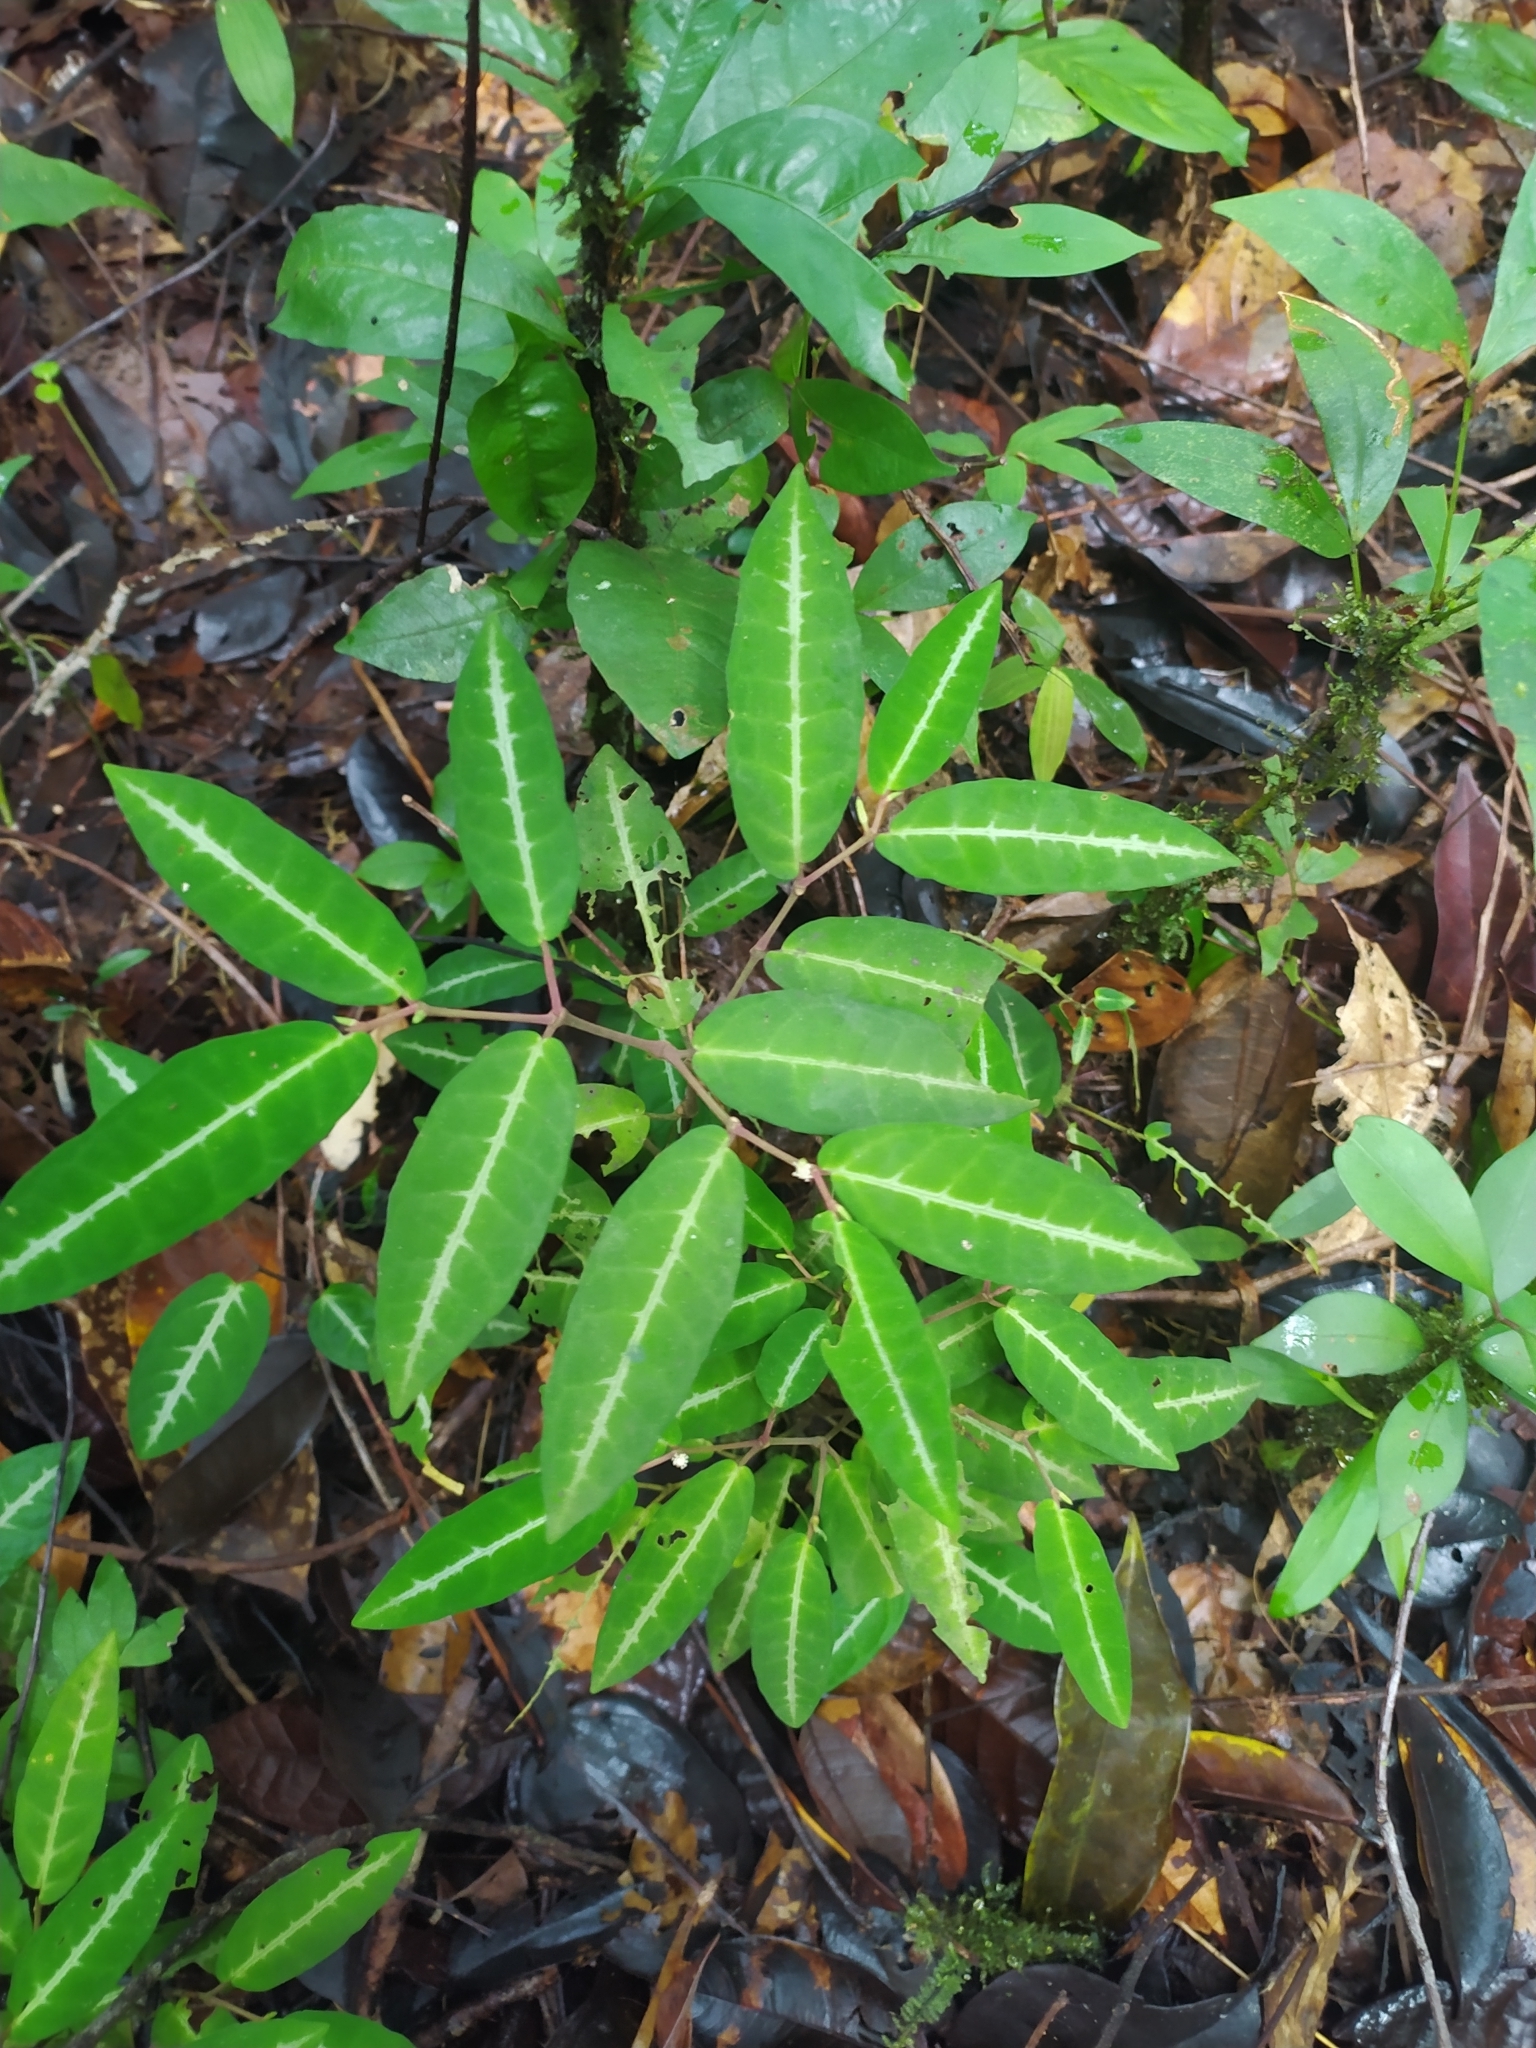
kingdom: Plantae
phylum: Tracheophyta
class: Magnoliopsida
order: Piperales
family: Piperaceae
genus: Piper
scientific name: Piper consanguineum
